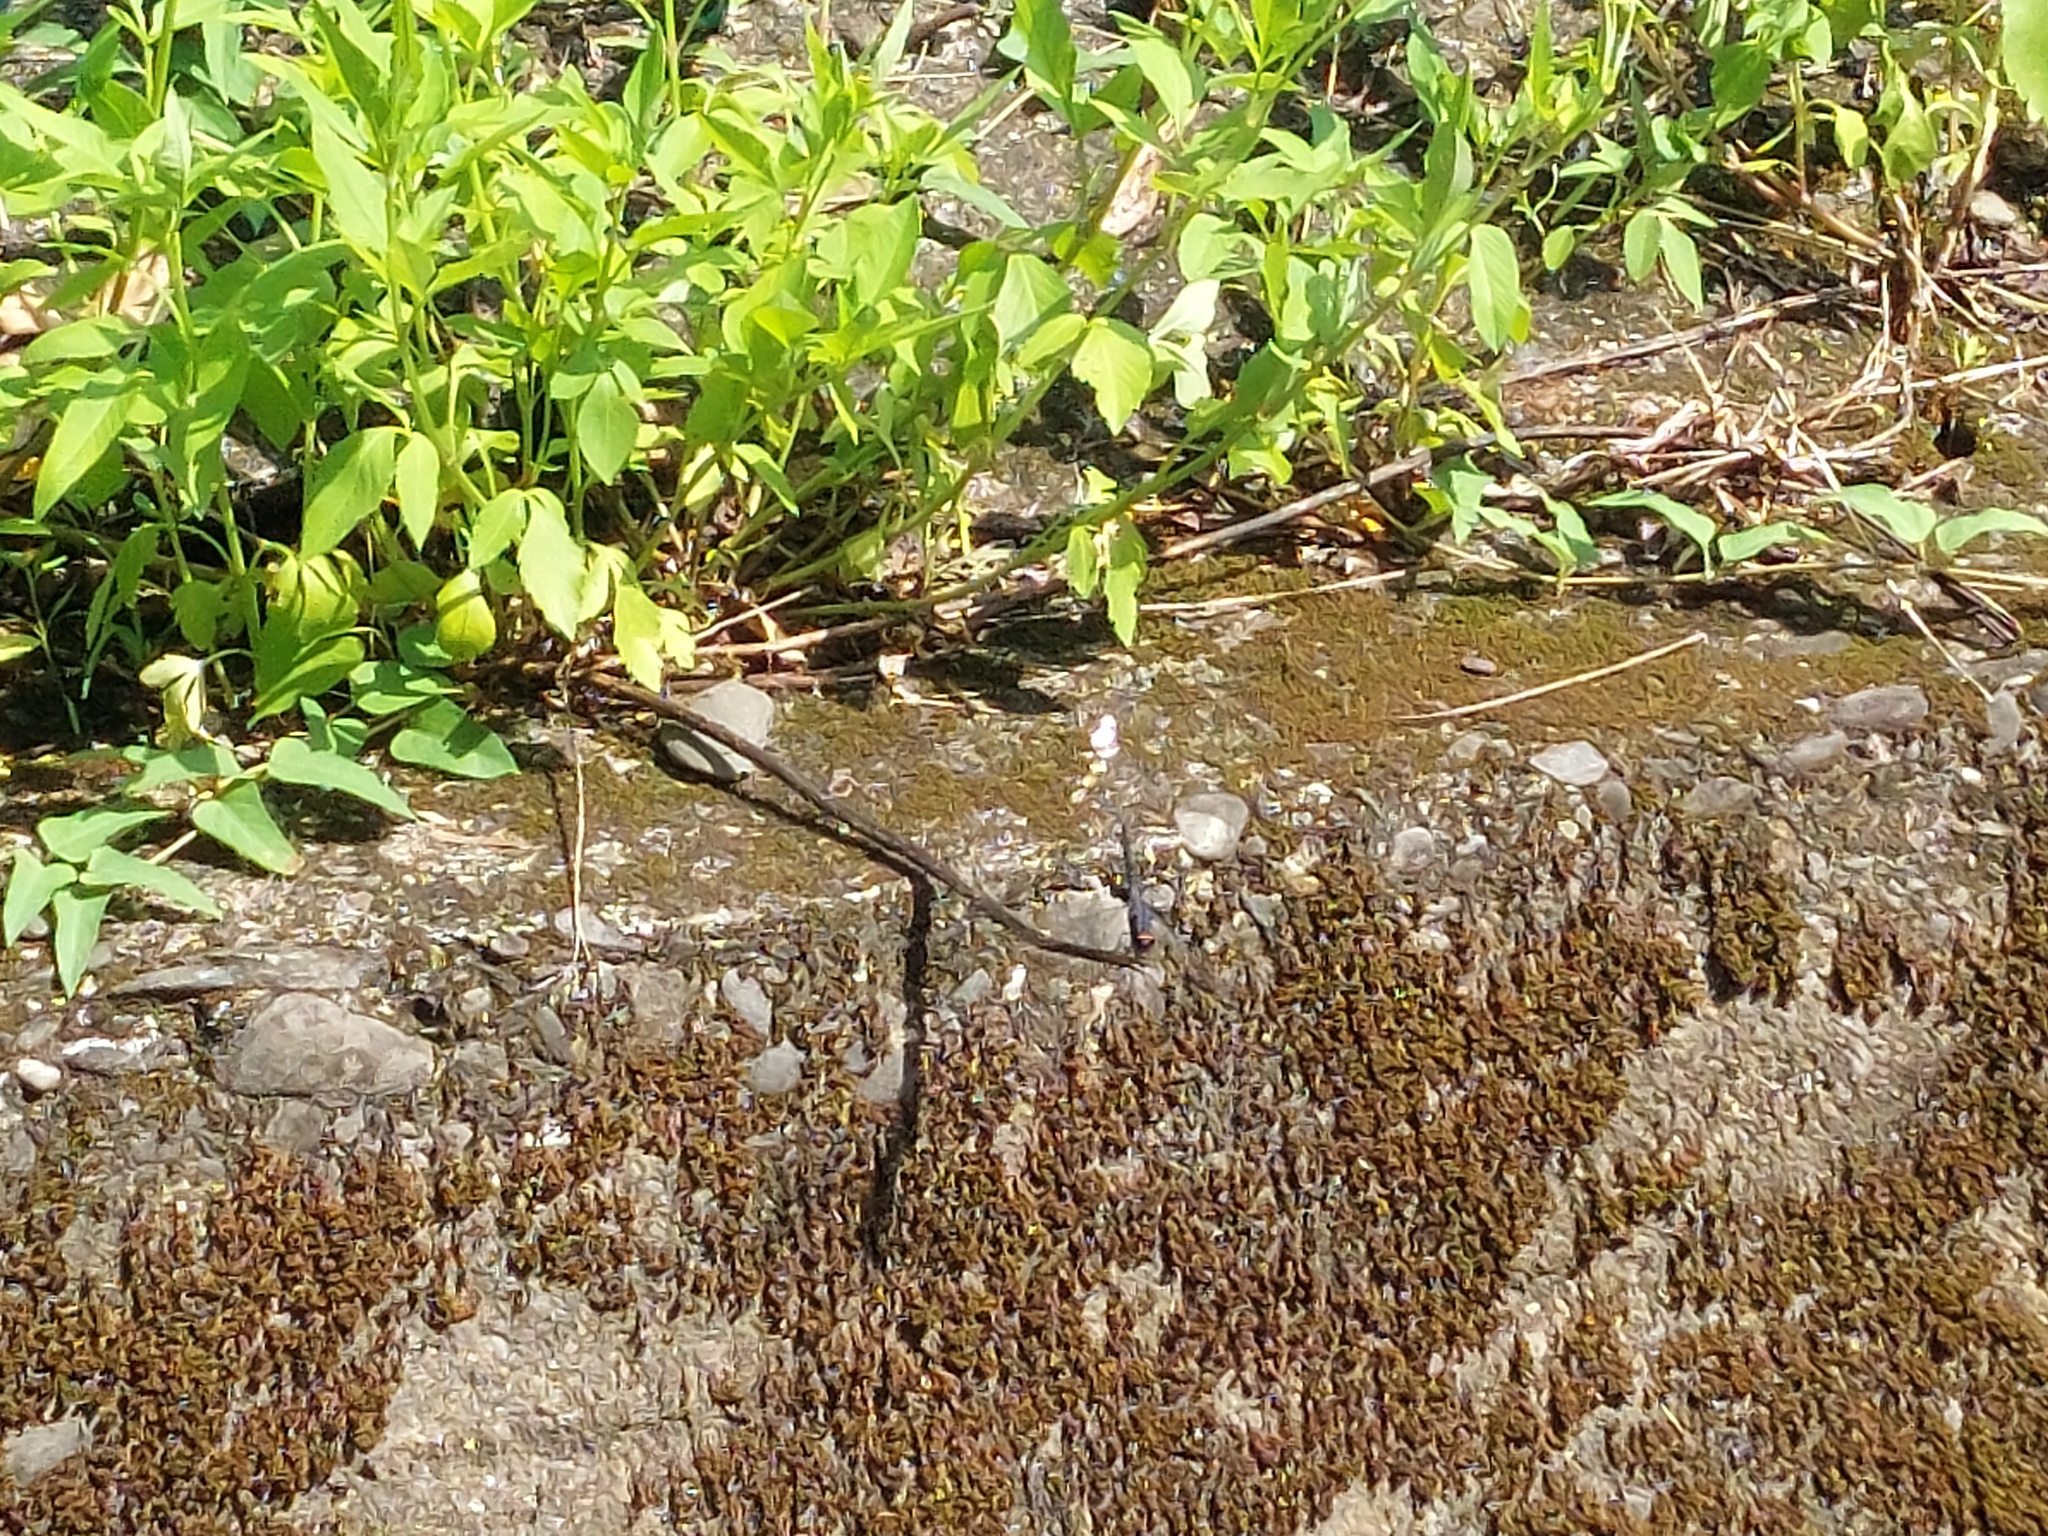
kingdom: Animalia
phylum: Arthropoda
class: Insecta
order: Odonata
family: Libellulidae
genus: Trithemis
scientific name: Trithemis festiva
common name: Indigo dropwing
